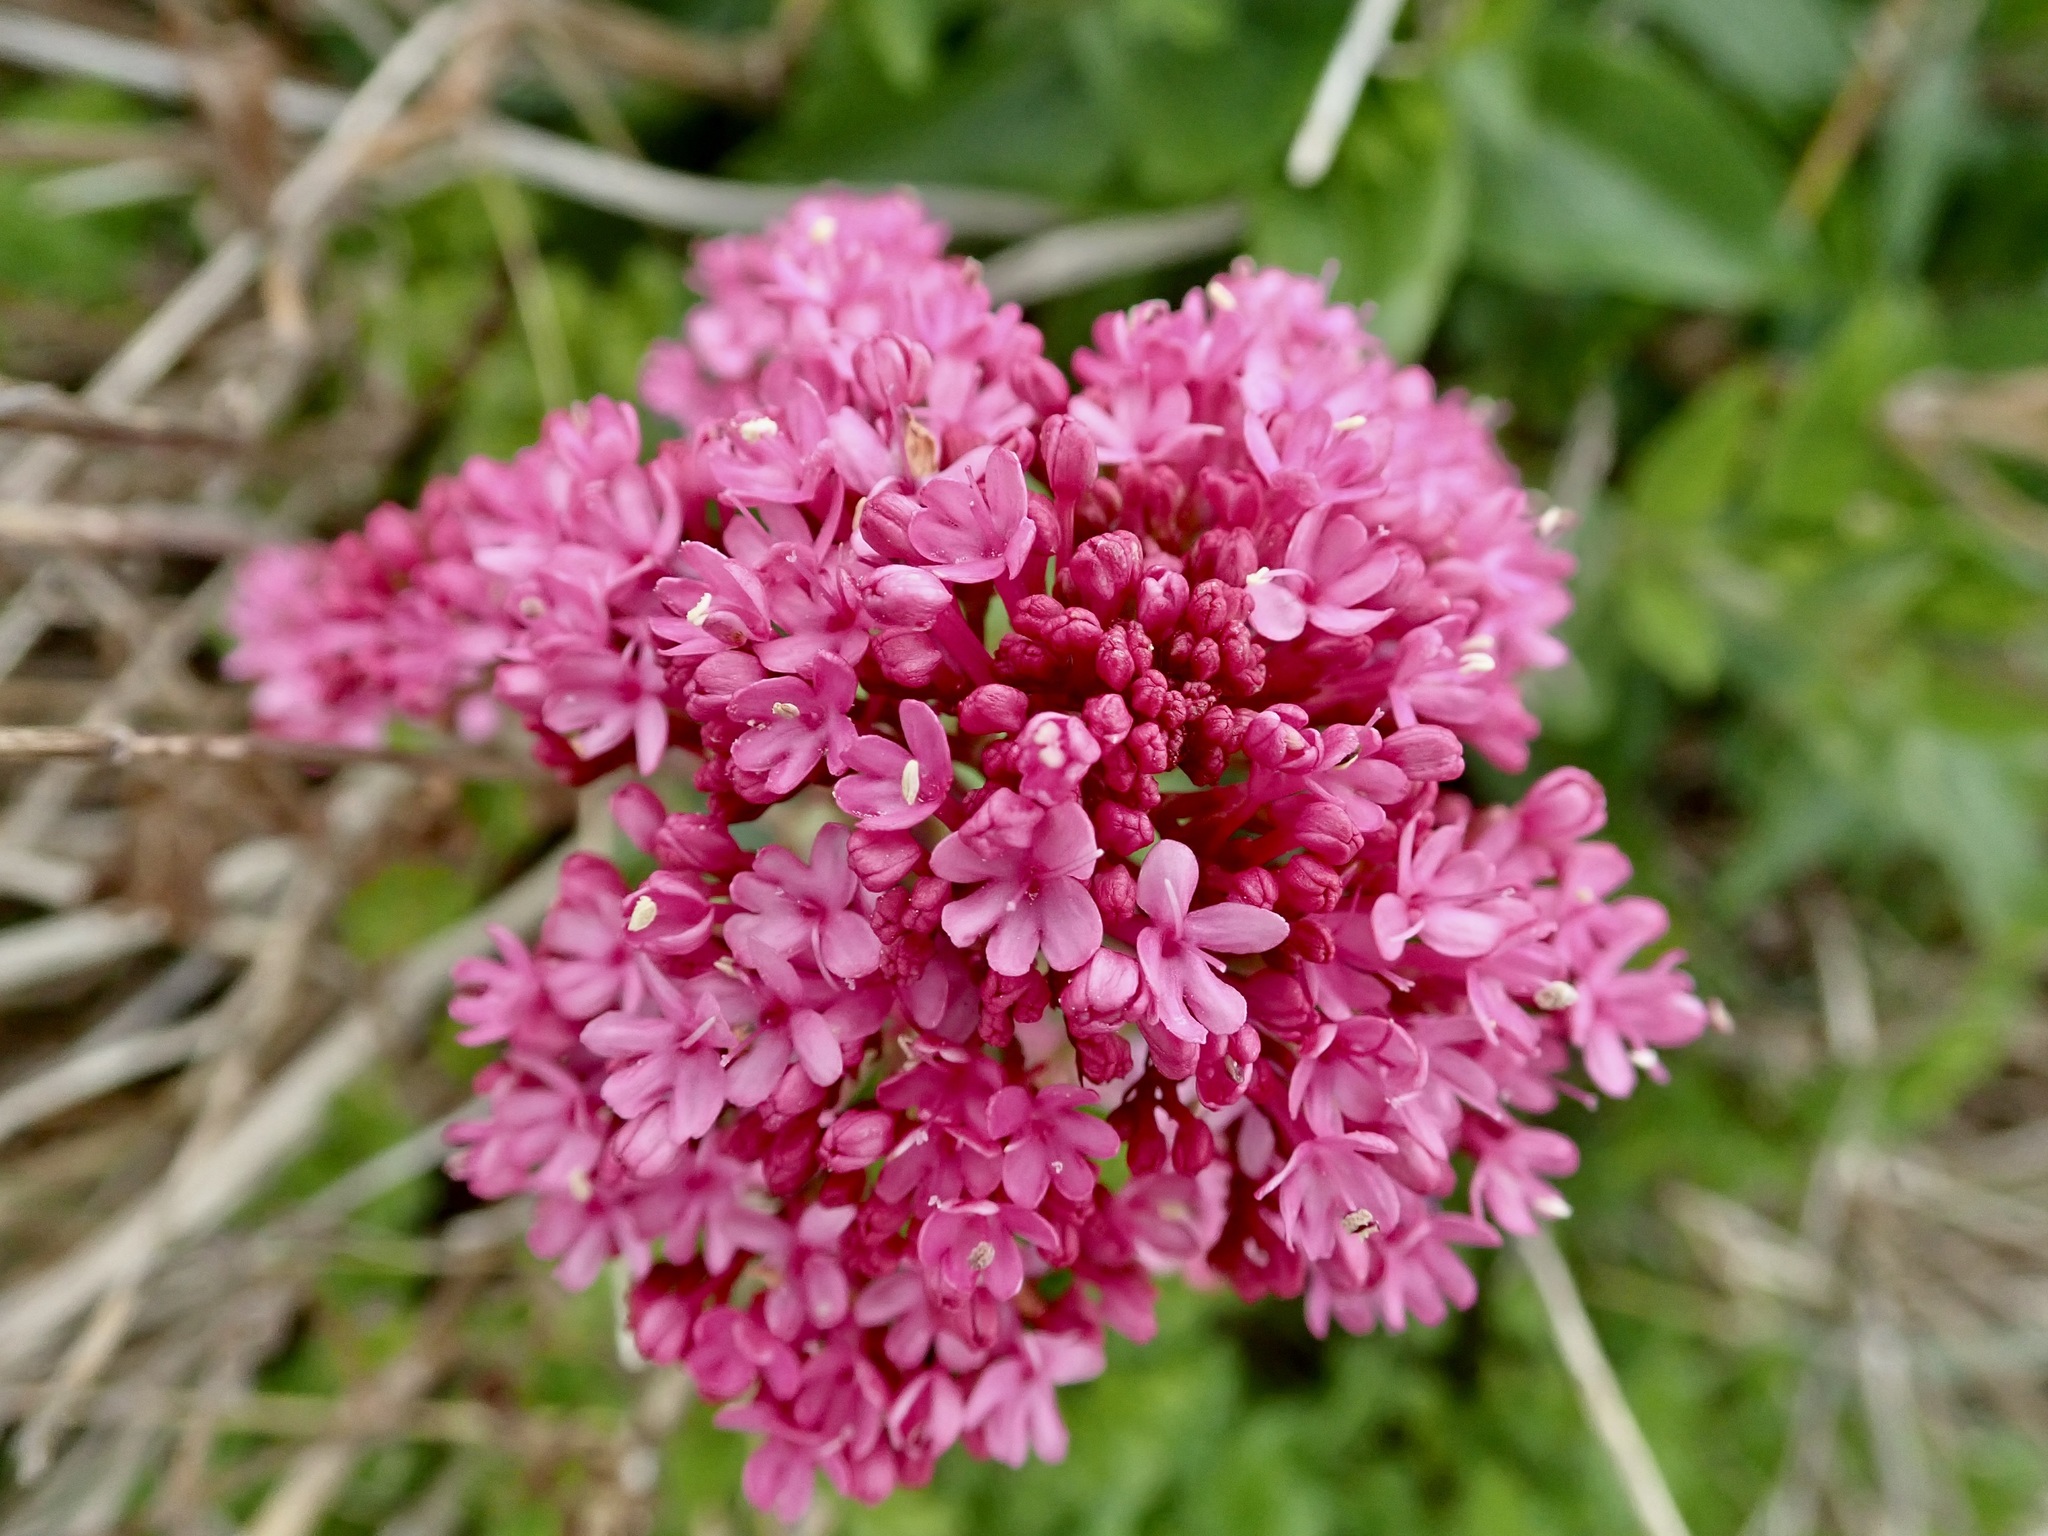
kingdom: Plantae
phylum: Tracheophyta
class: Magnoliopsida
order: Dipsacales
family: Caprifoliaceae
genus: Centranthus
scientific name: Centranthus ruber
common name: Red valerian
